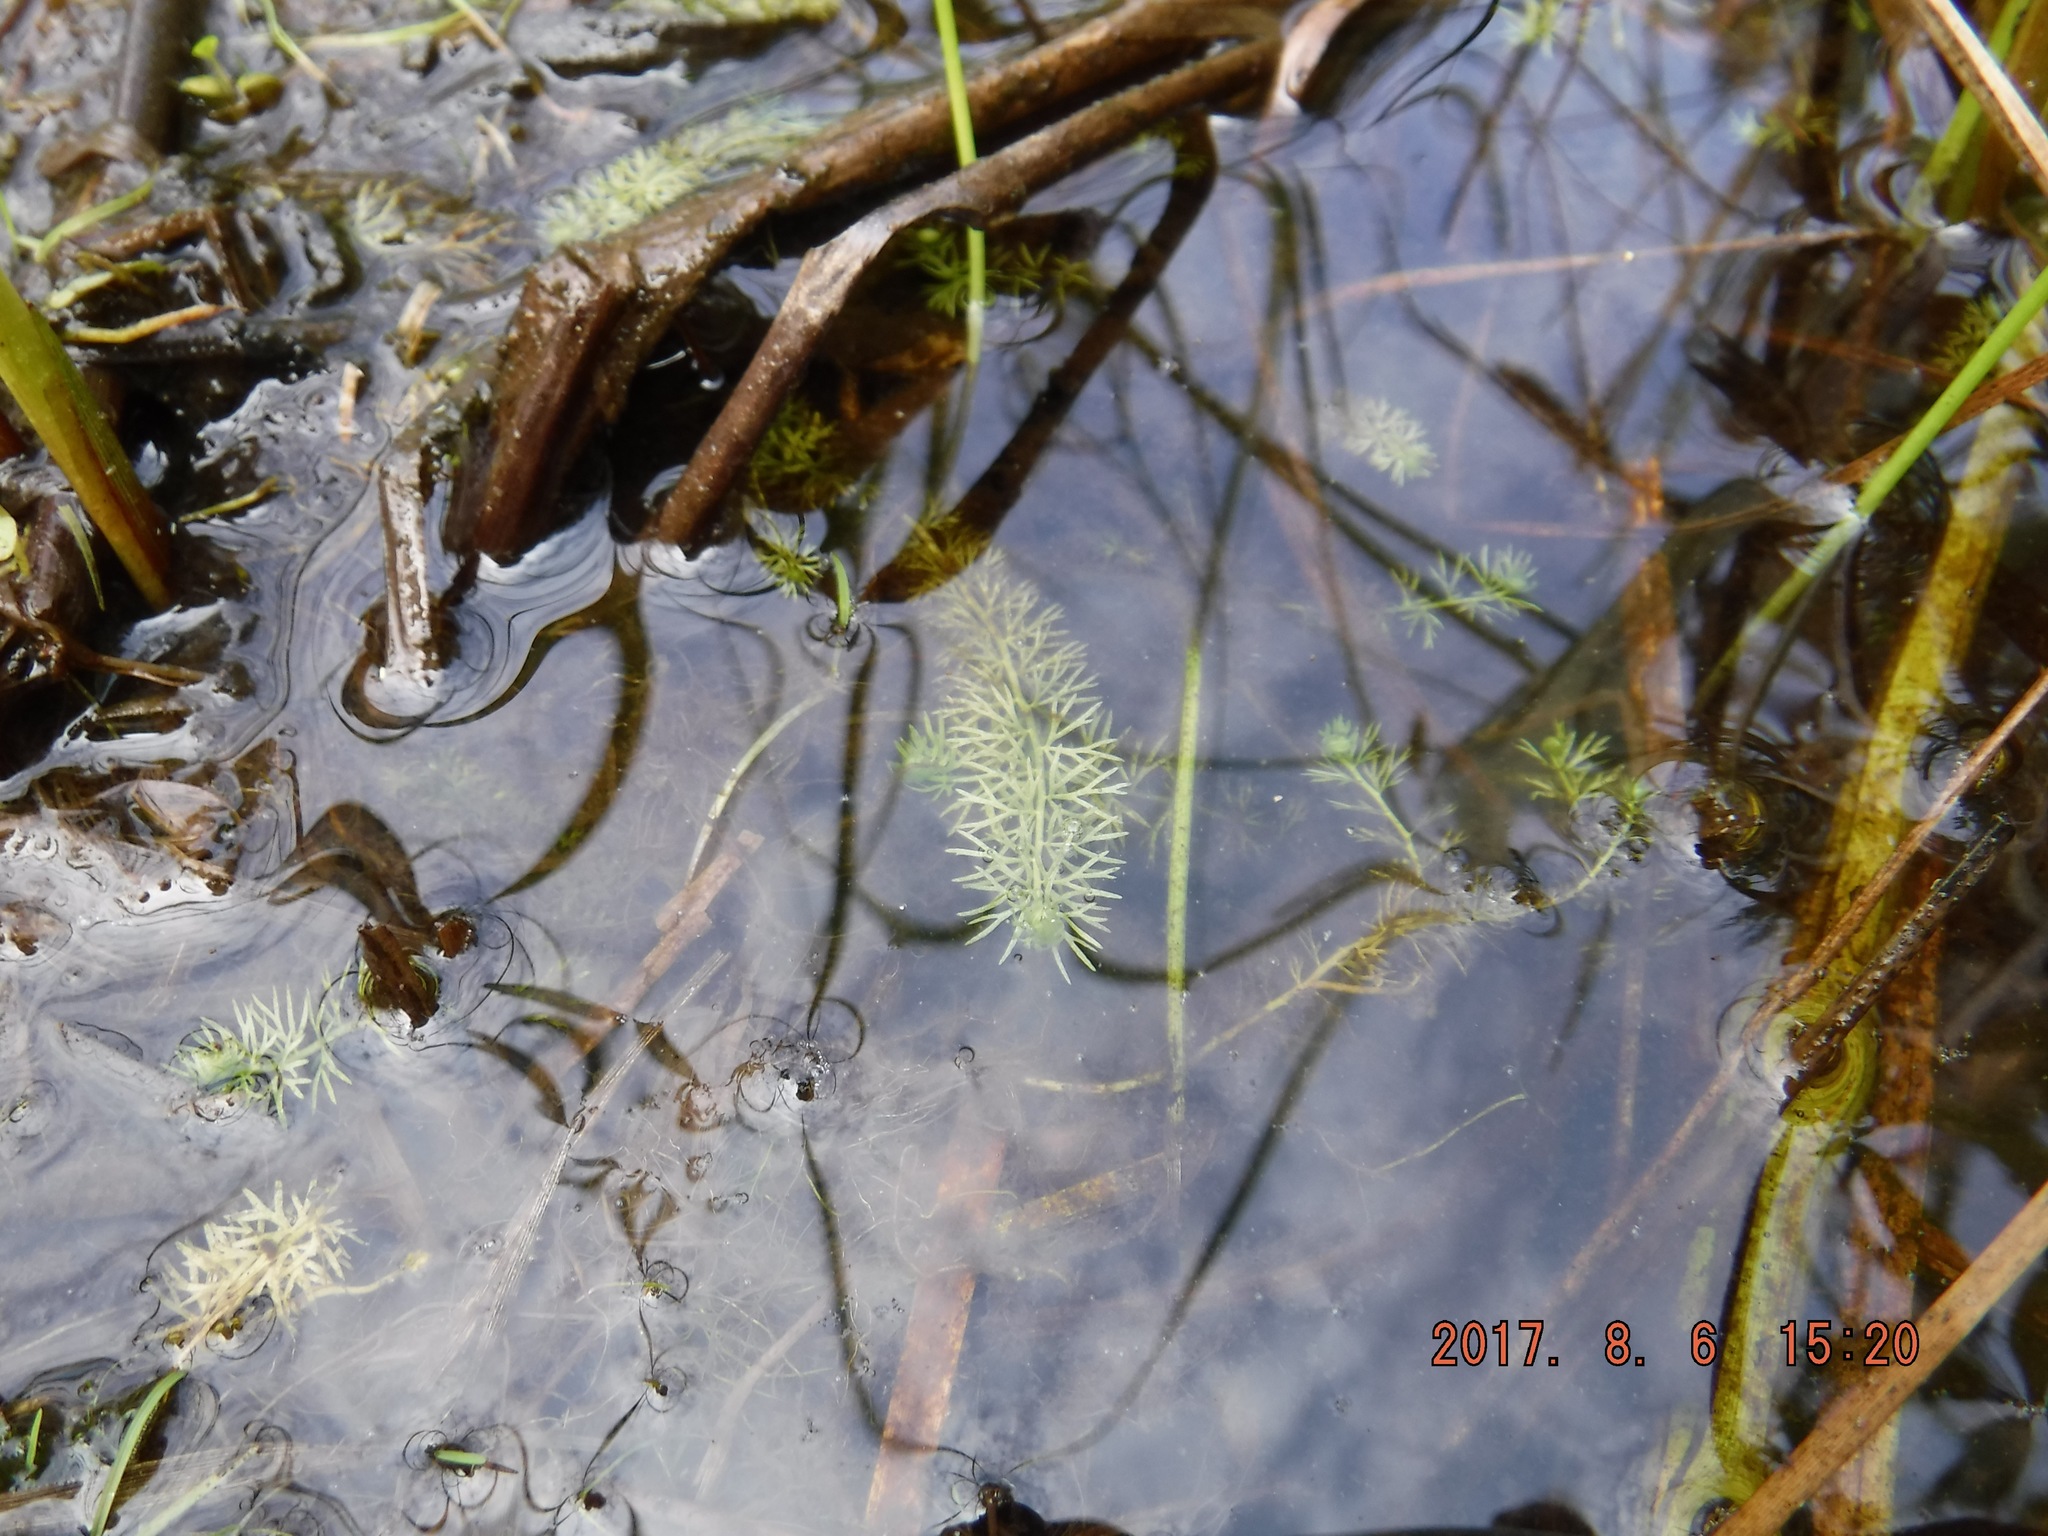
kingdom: Plantae
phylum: Tracheophyta
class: Magnoliopsida
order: Lamiales
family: Lentibulariaceae
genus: Utricularia
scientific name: Utricularia intermedia
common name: Intermediate bladderwort
